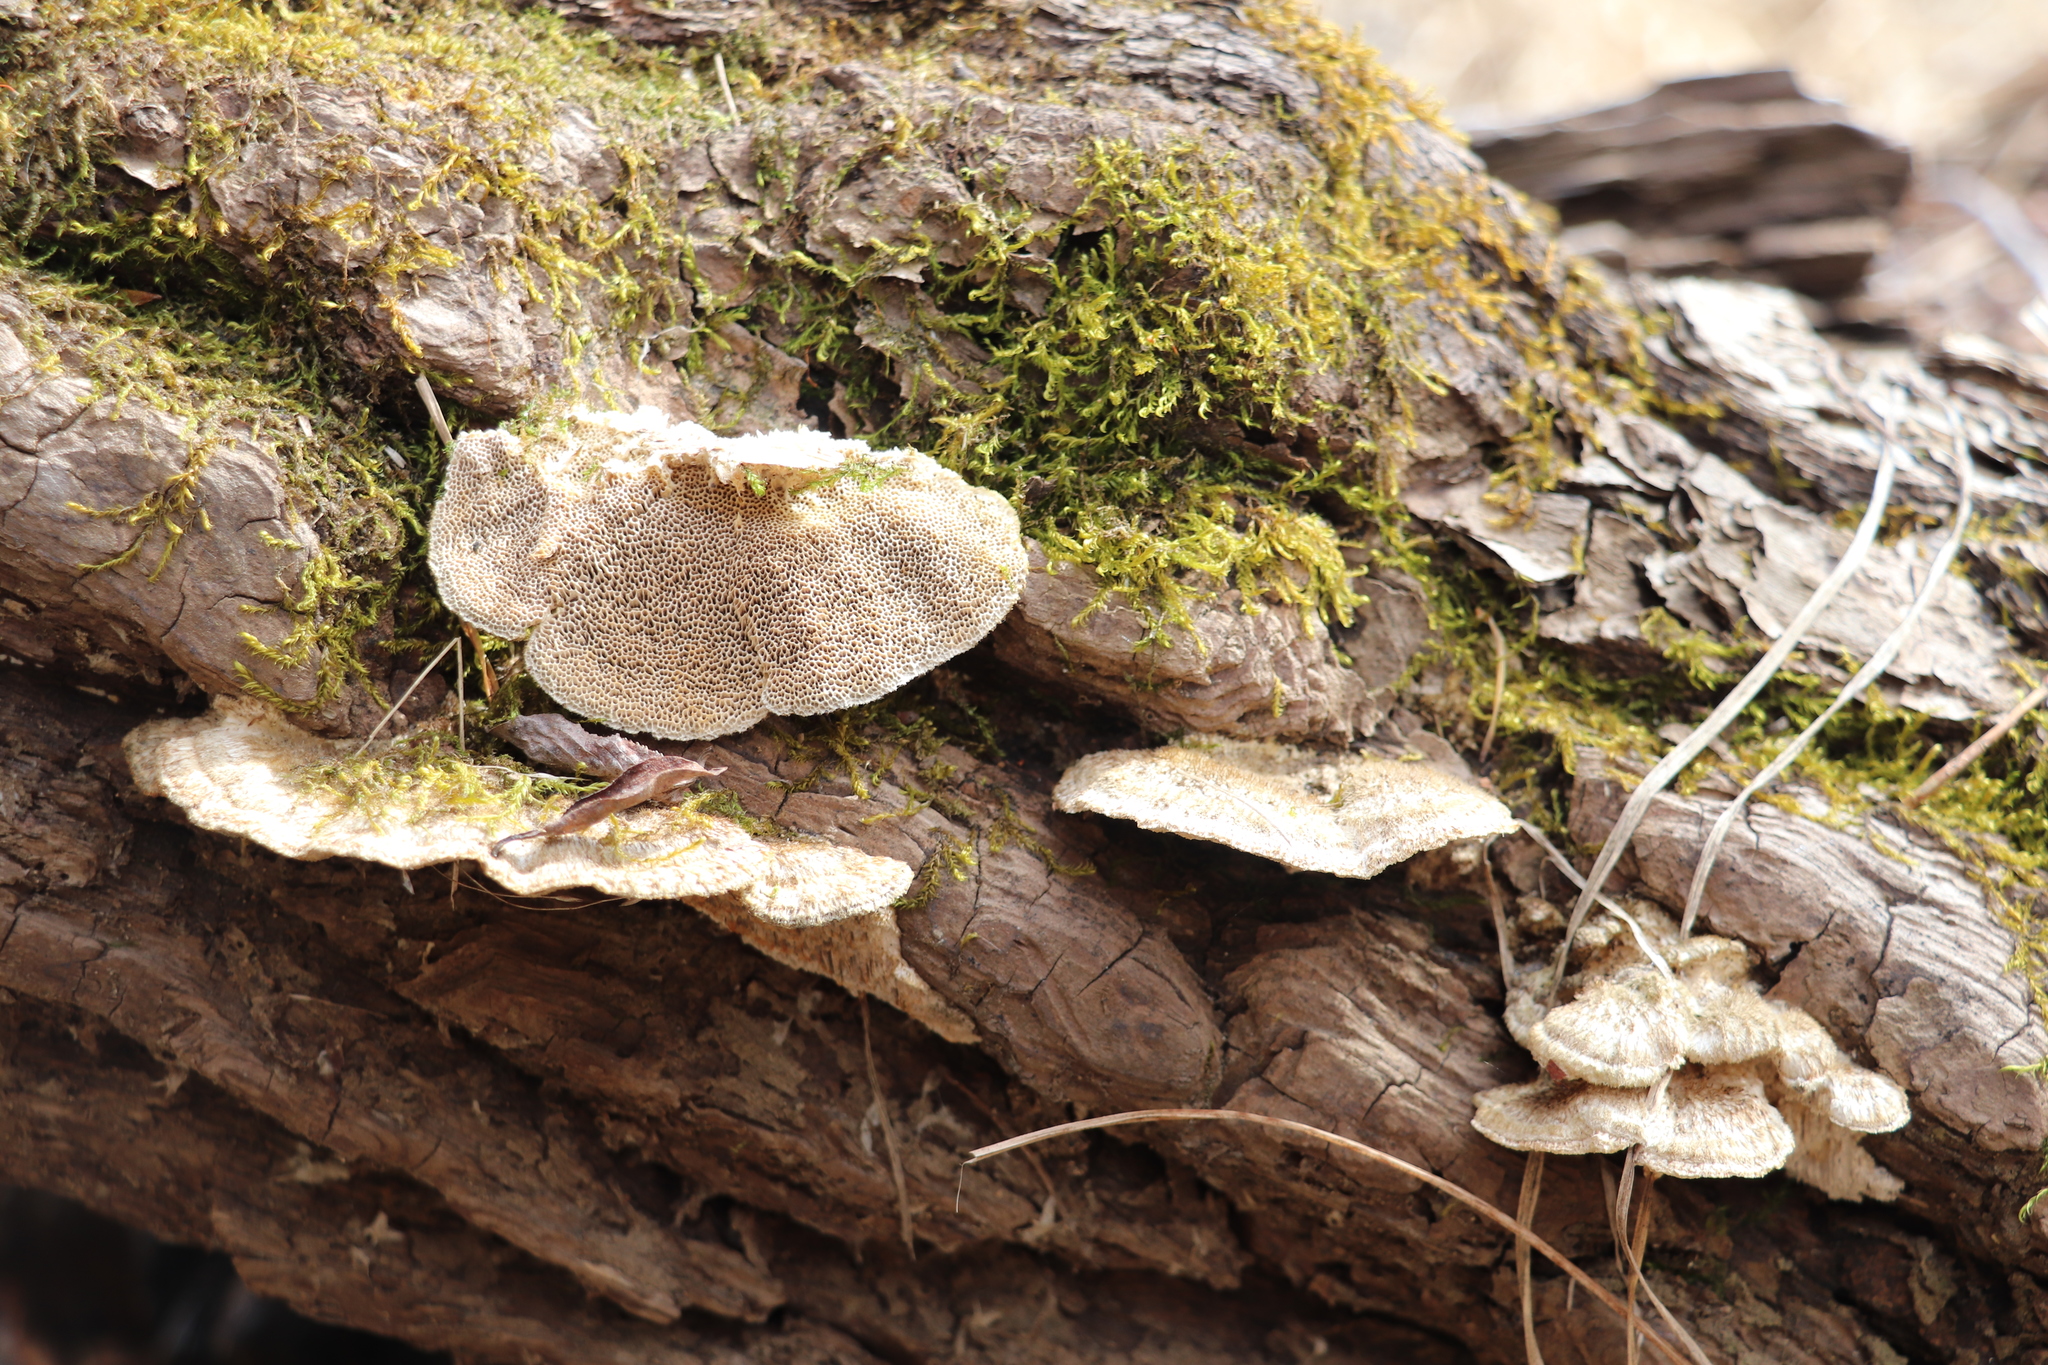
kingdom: Fungi
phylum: Basidiomycota
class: Agaricomycetes
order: Polyporales
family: Polyporaceae
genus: Trametes
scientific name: Trametes trogii
